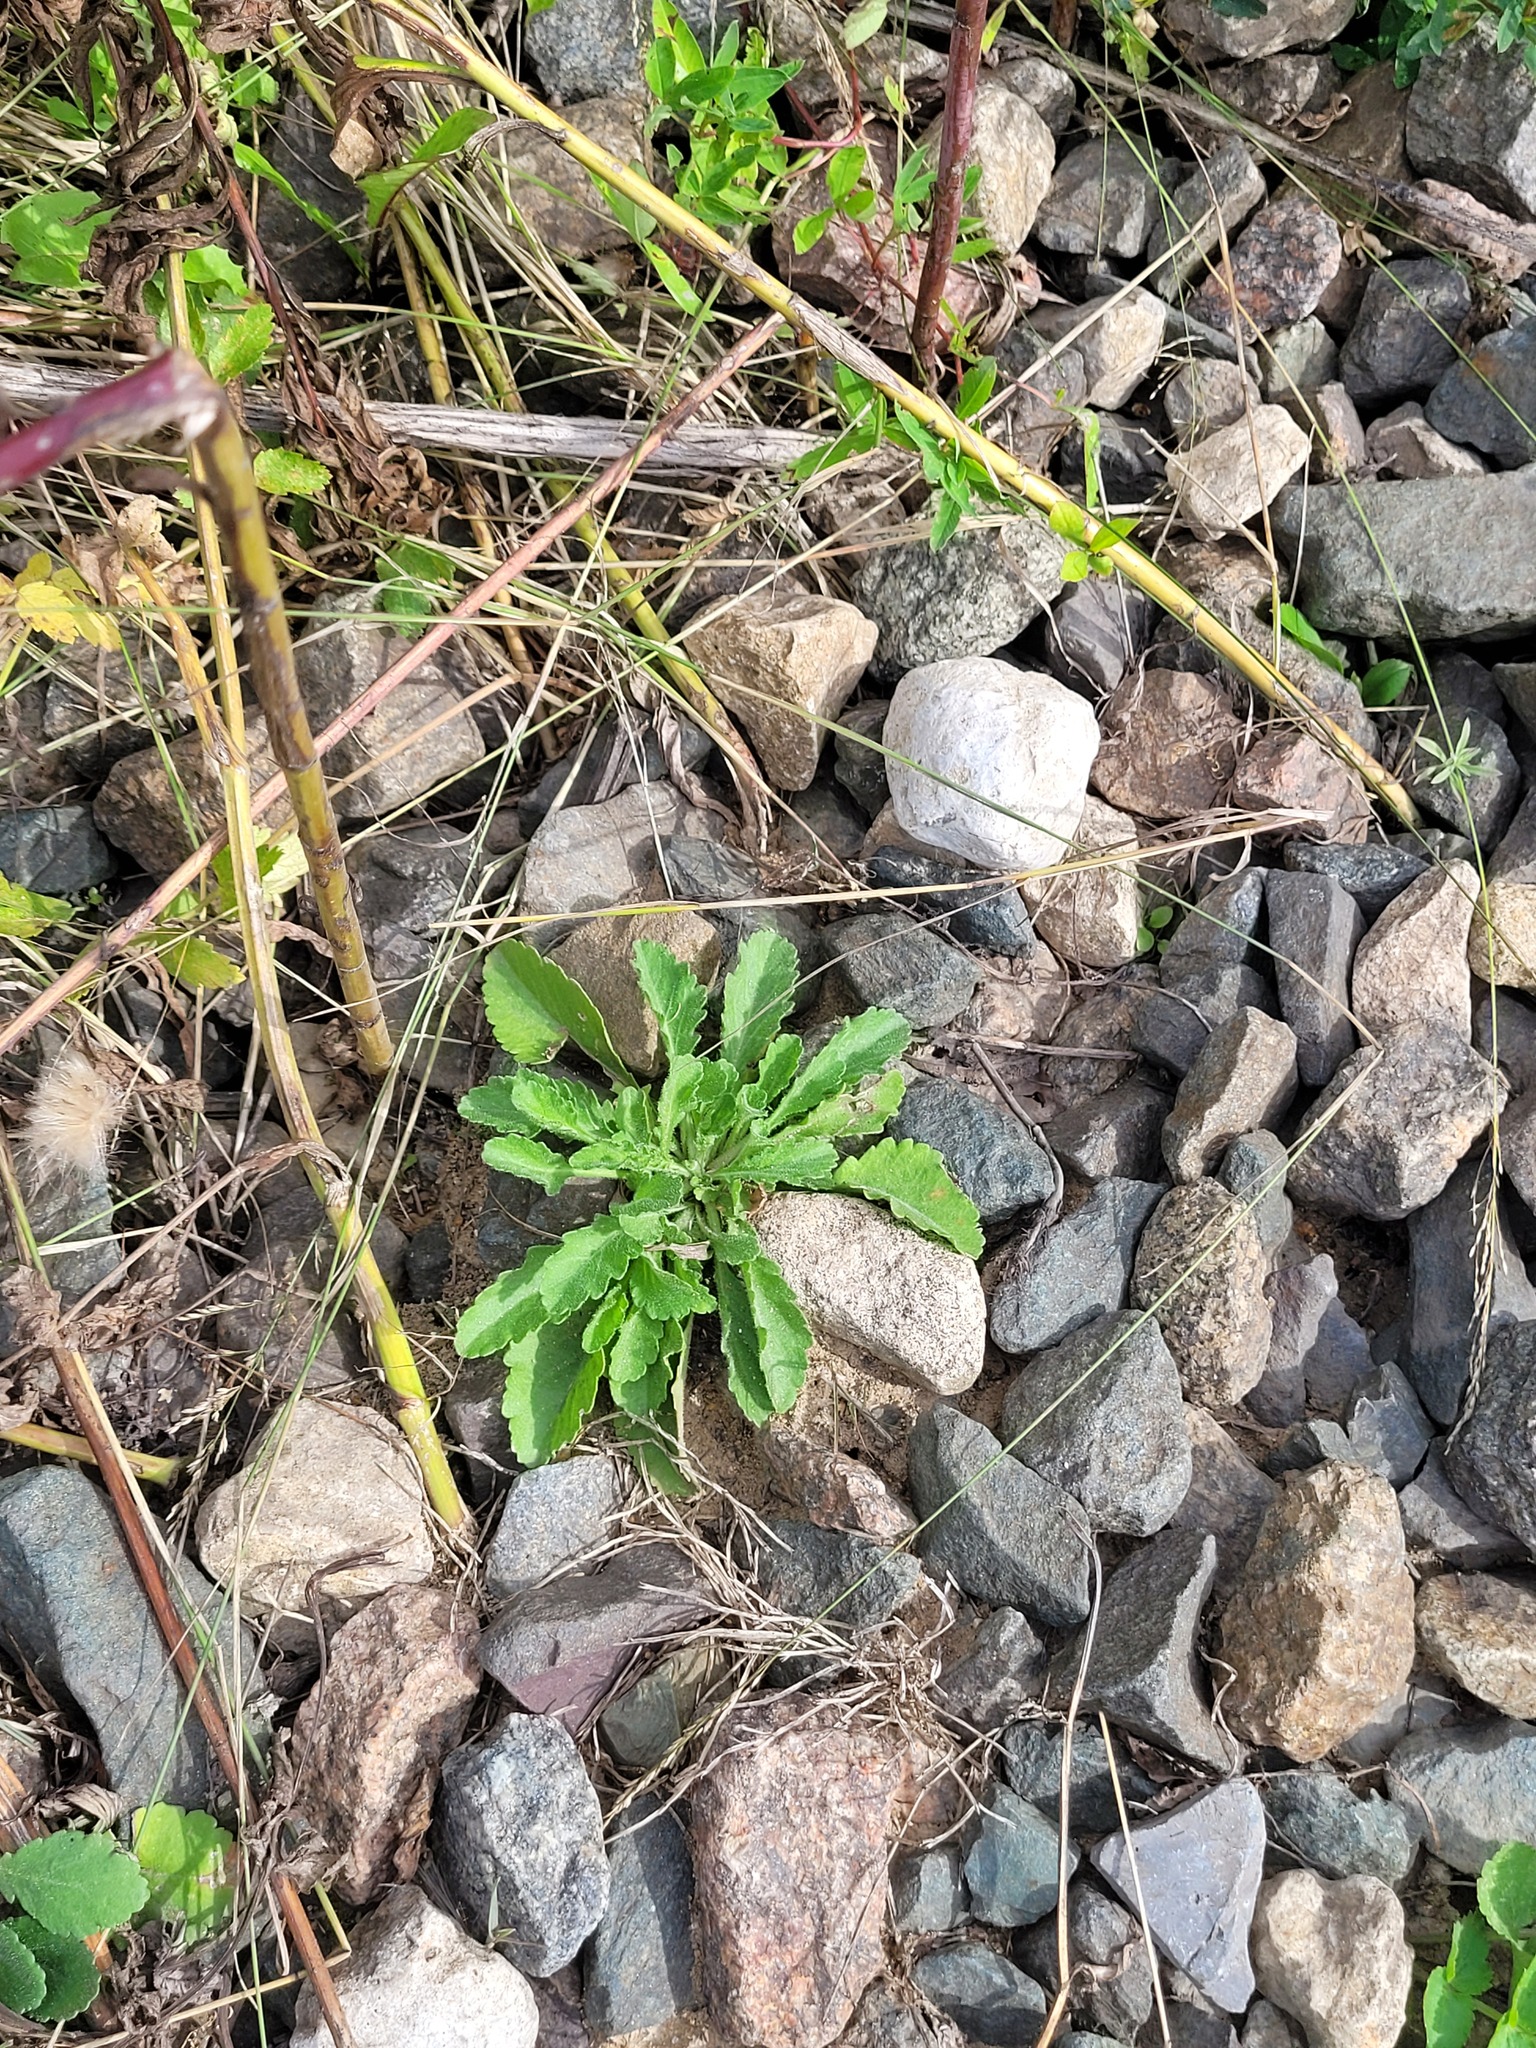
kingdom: Plantae
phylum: Tracheophyta
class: Magnoliopsida
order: Asterales
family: Asteraceae
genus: Leucanthemum
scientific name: Leucanthemum vulgare
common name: Oxeye daisy
